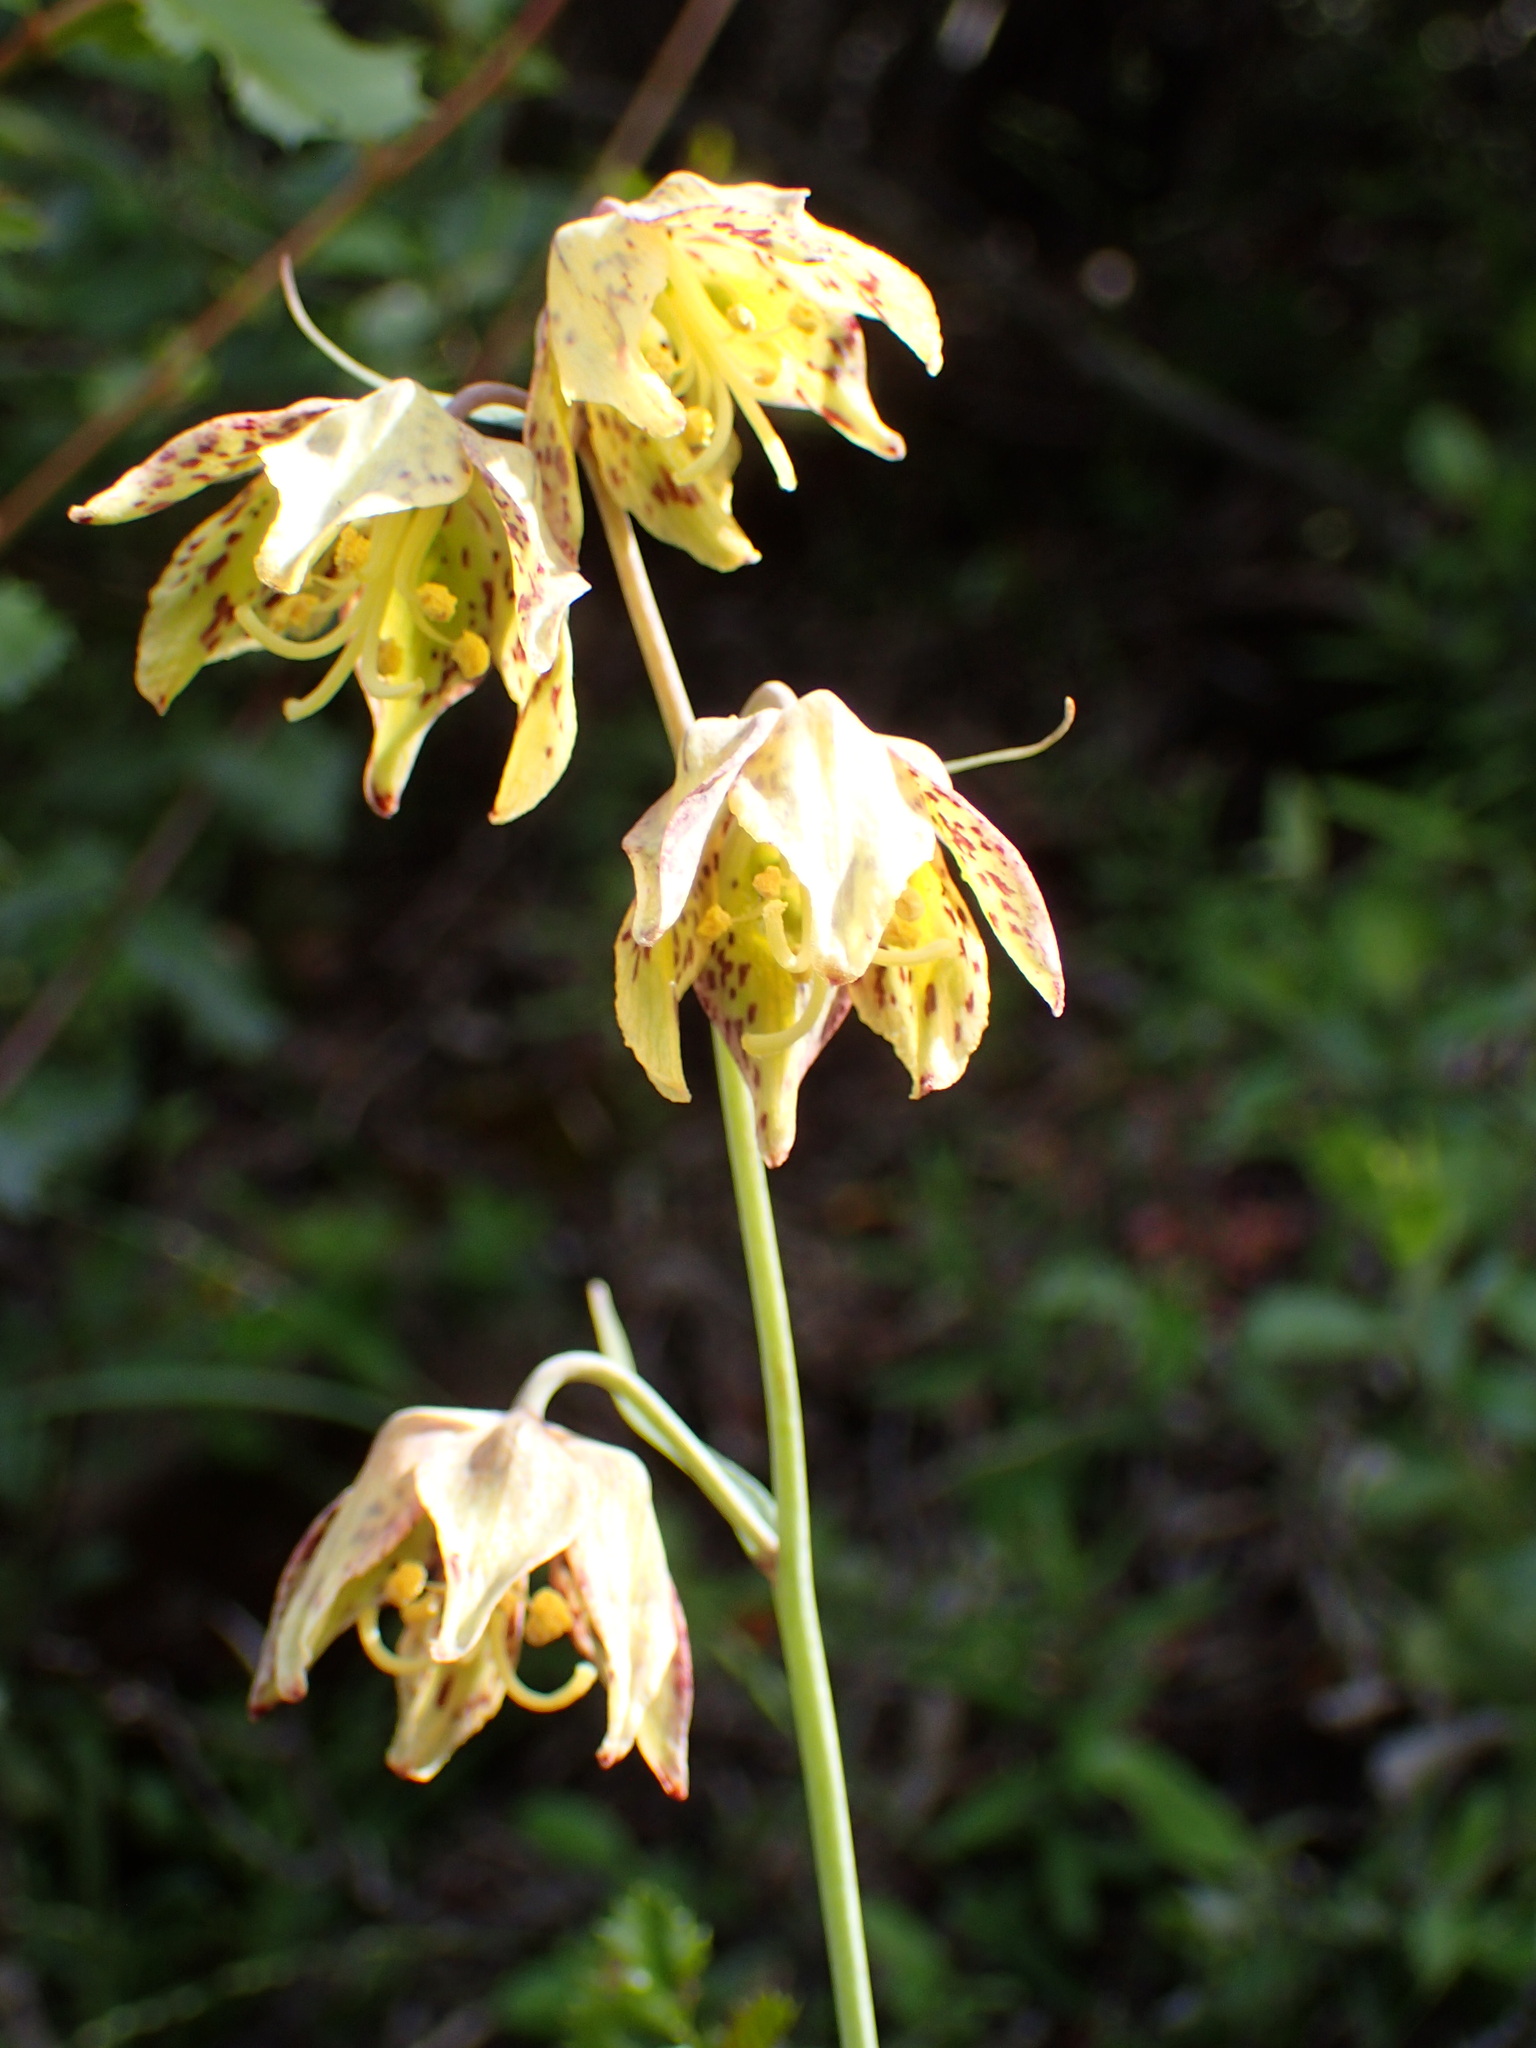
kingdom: Plantae
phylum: Tracheophyta
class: Liliopsida
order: Liliales
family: Liliaceae
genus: Fritillaria
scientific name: Fritillaria ojaiensis
